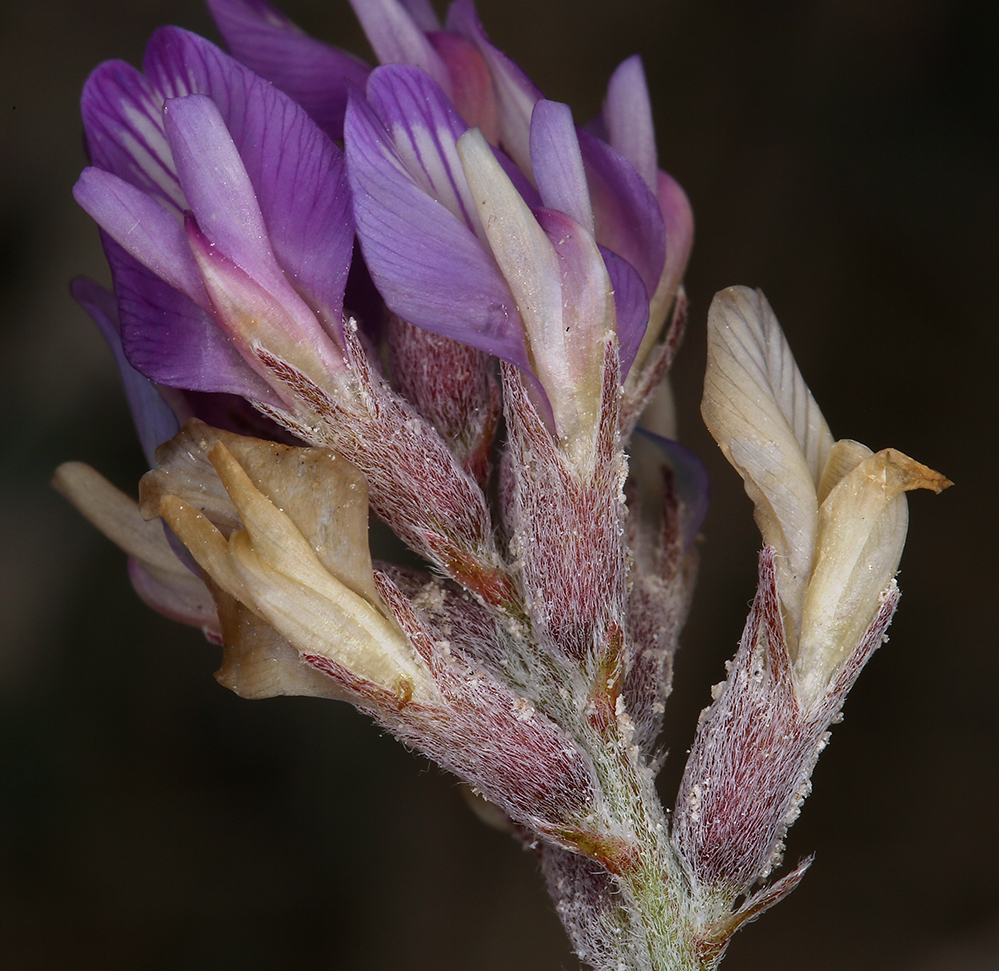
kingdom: Plantae
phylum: Tracheophyta
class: Magnoliopsida
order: Fabales
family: Fabaceae
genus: Astragalus
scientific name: Astragalus lentiginosus
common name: Freckled milkvetch
